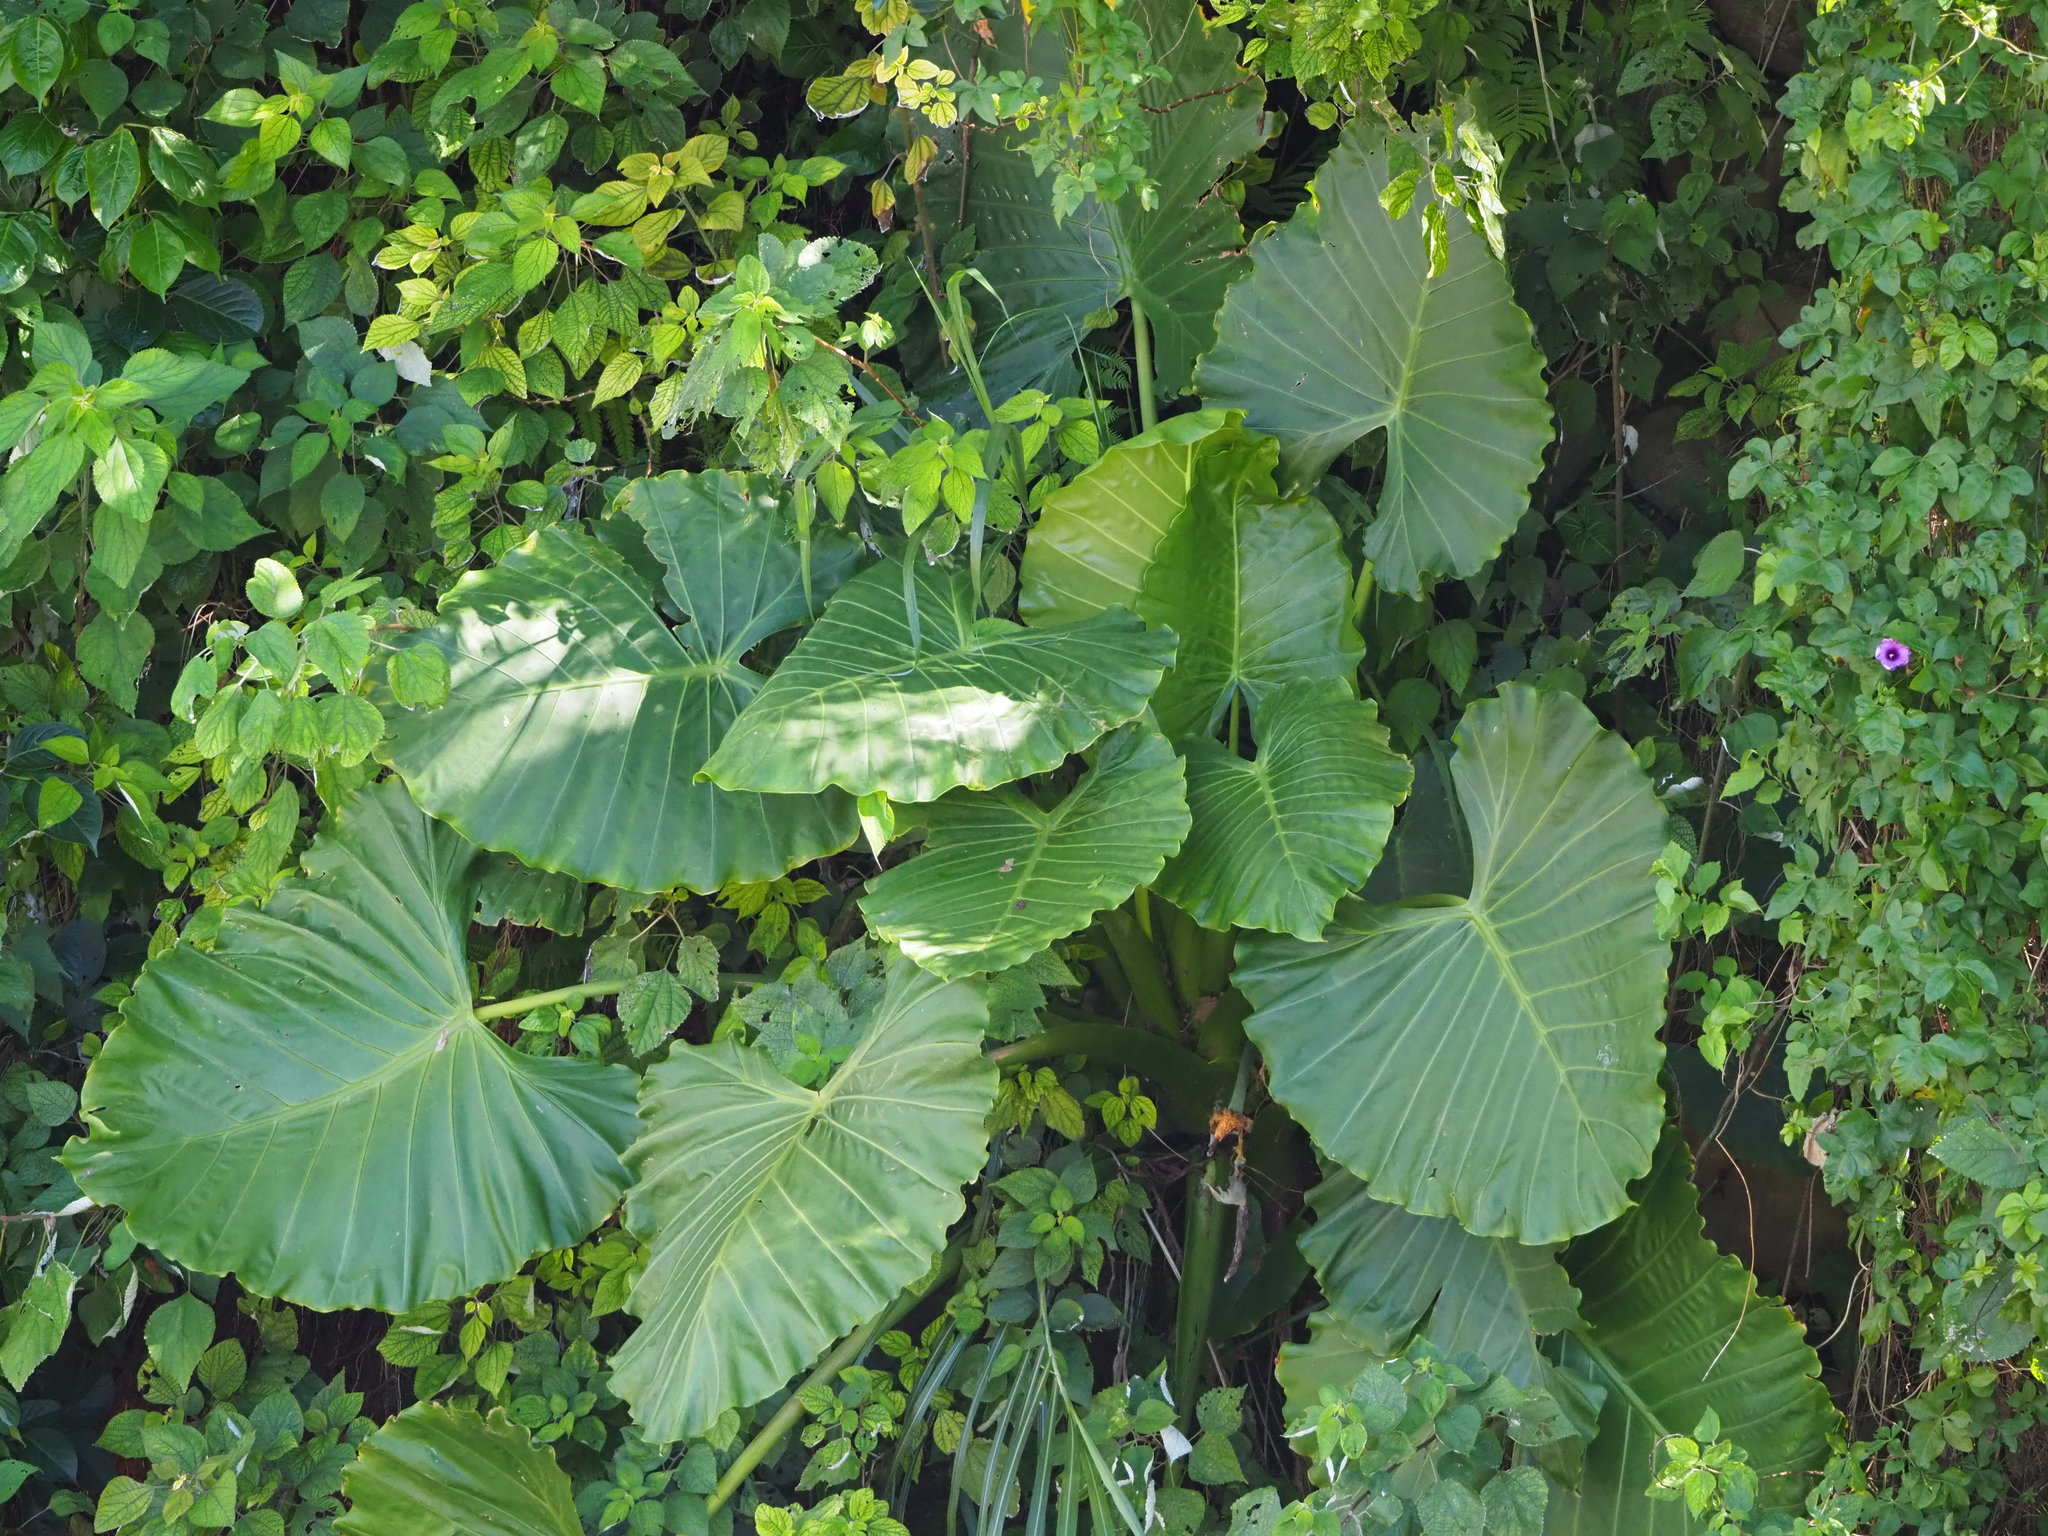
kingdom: Plantae
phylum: Tracheophyta
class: Liliopsida
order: Alismatales
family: Araceae
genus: Alocasia
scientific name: Alocasia odora
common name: Asian taro
